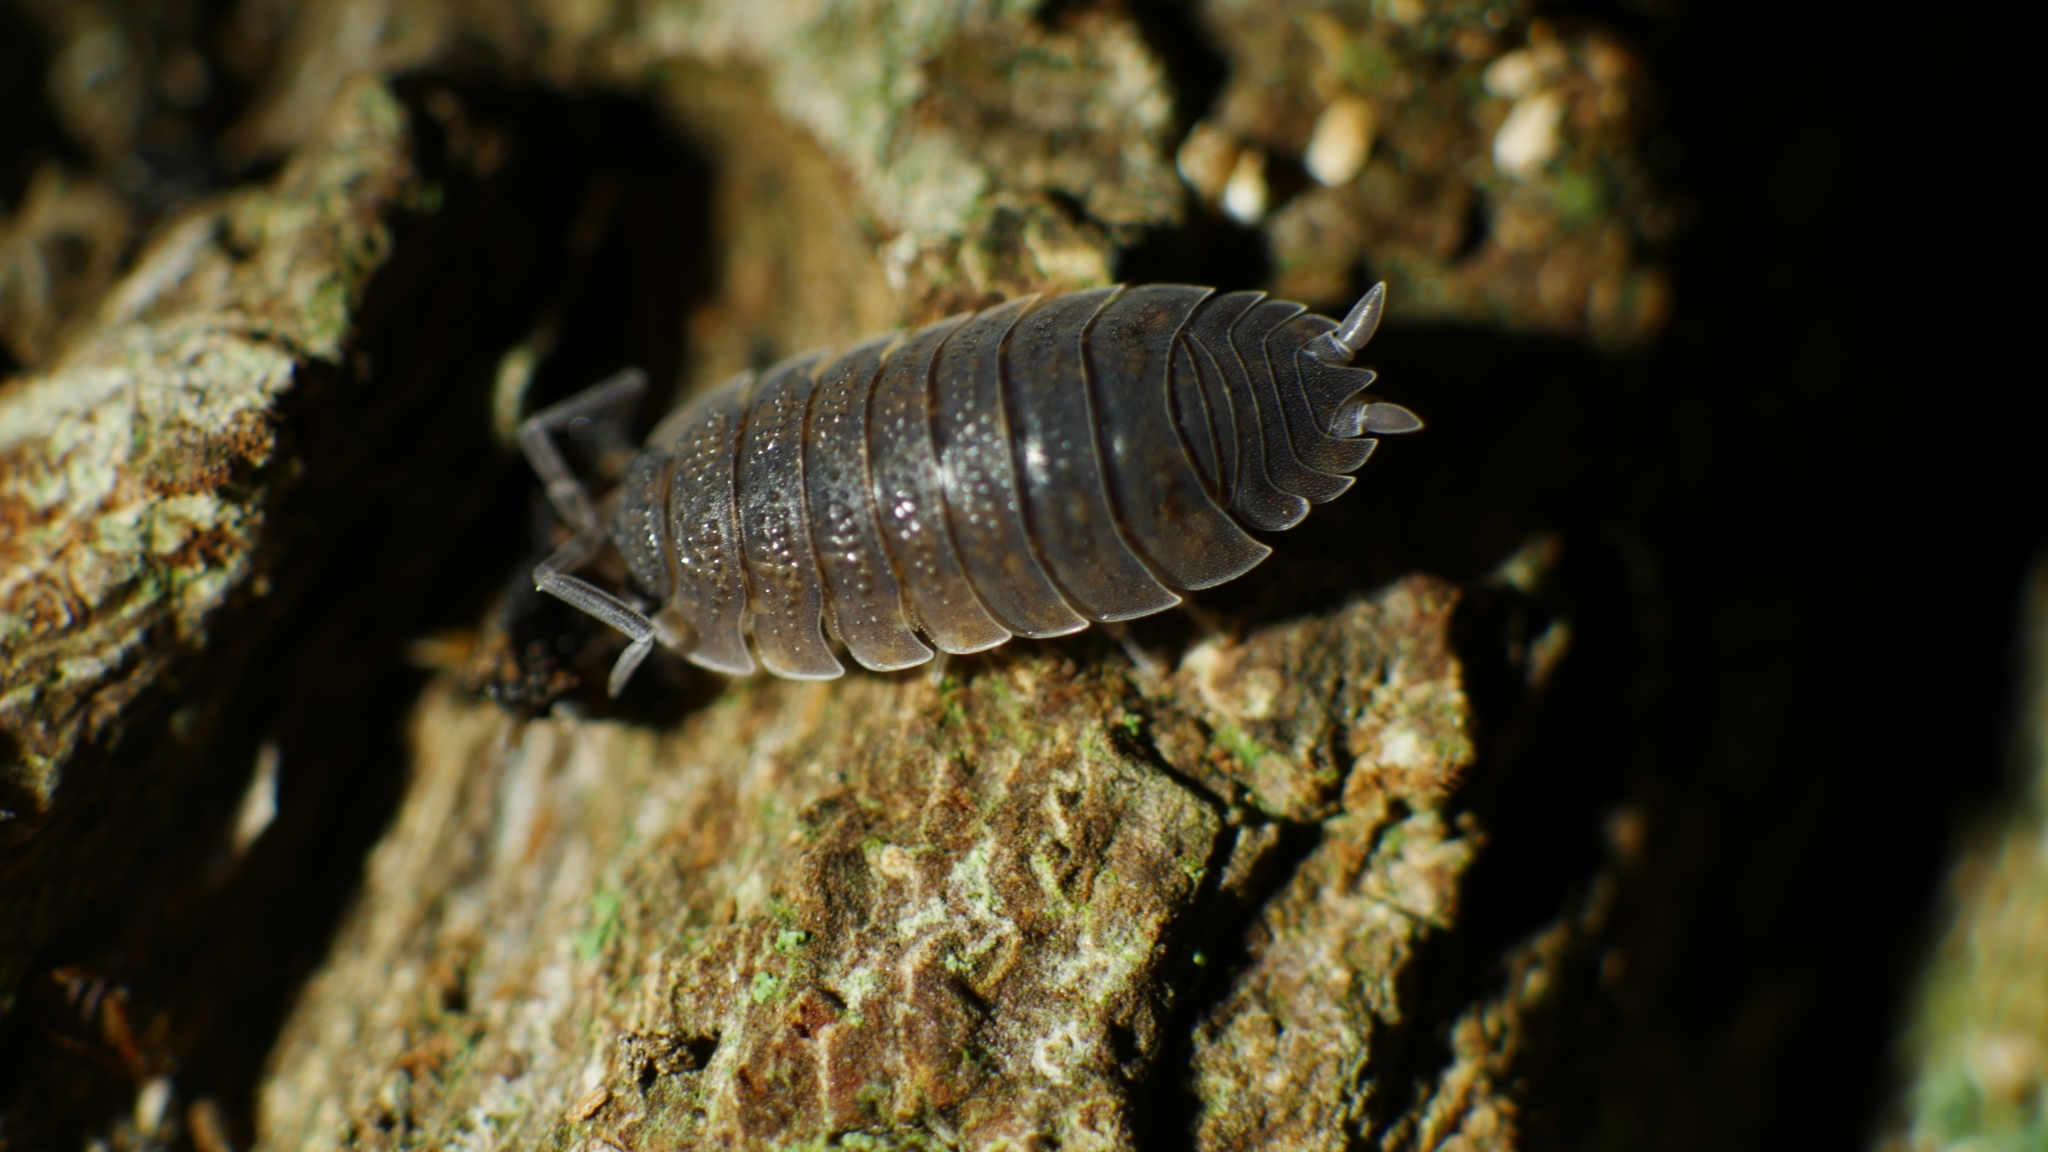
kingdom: Animalia
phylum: Arthropoda
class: Malacostraca
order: Isopoda
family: Porcellionidae
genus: Porcellio
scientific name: Porcellio scaber
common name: Common rough woodlouse
